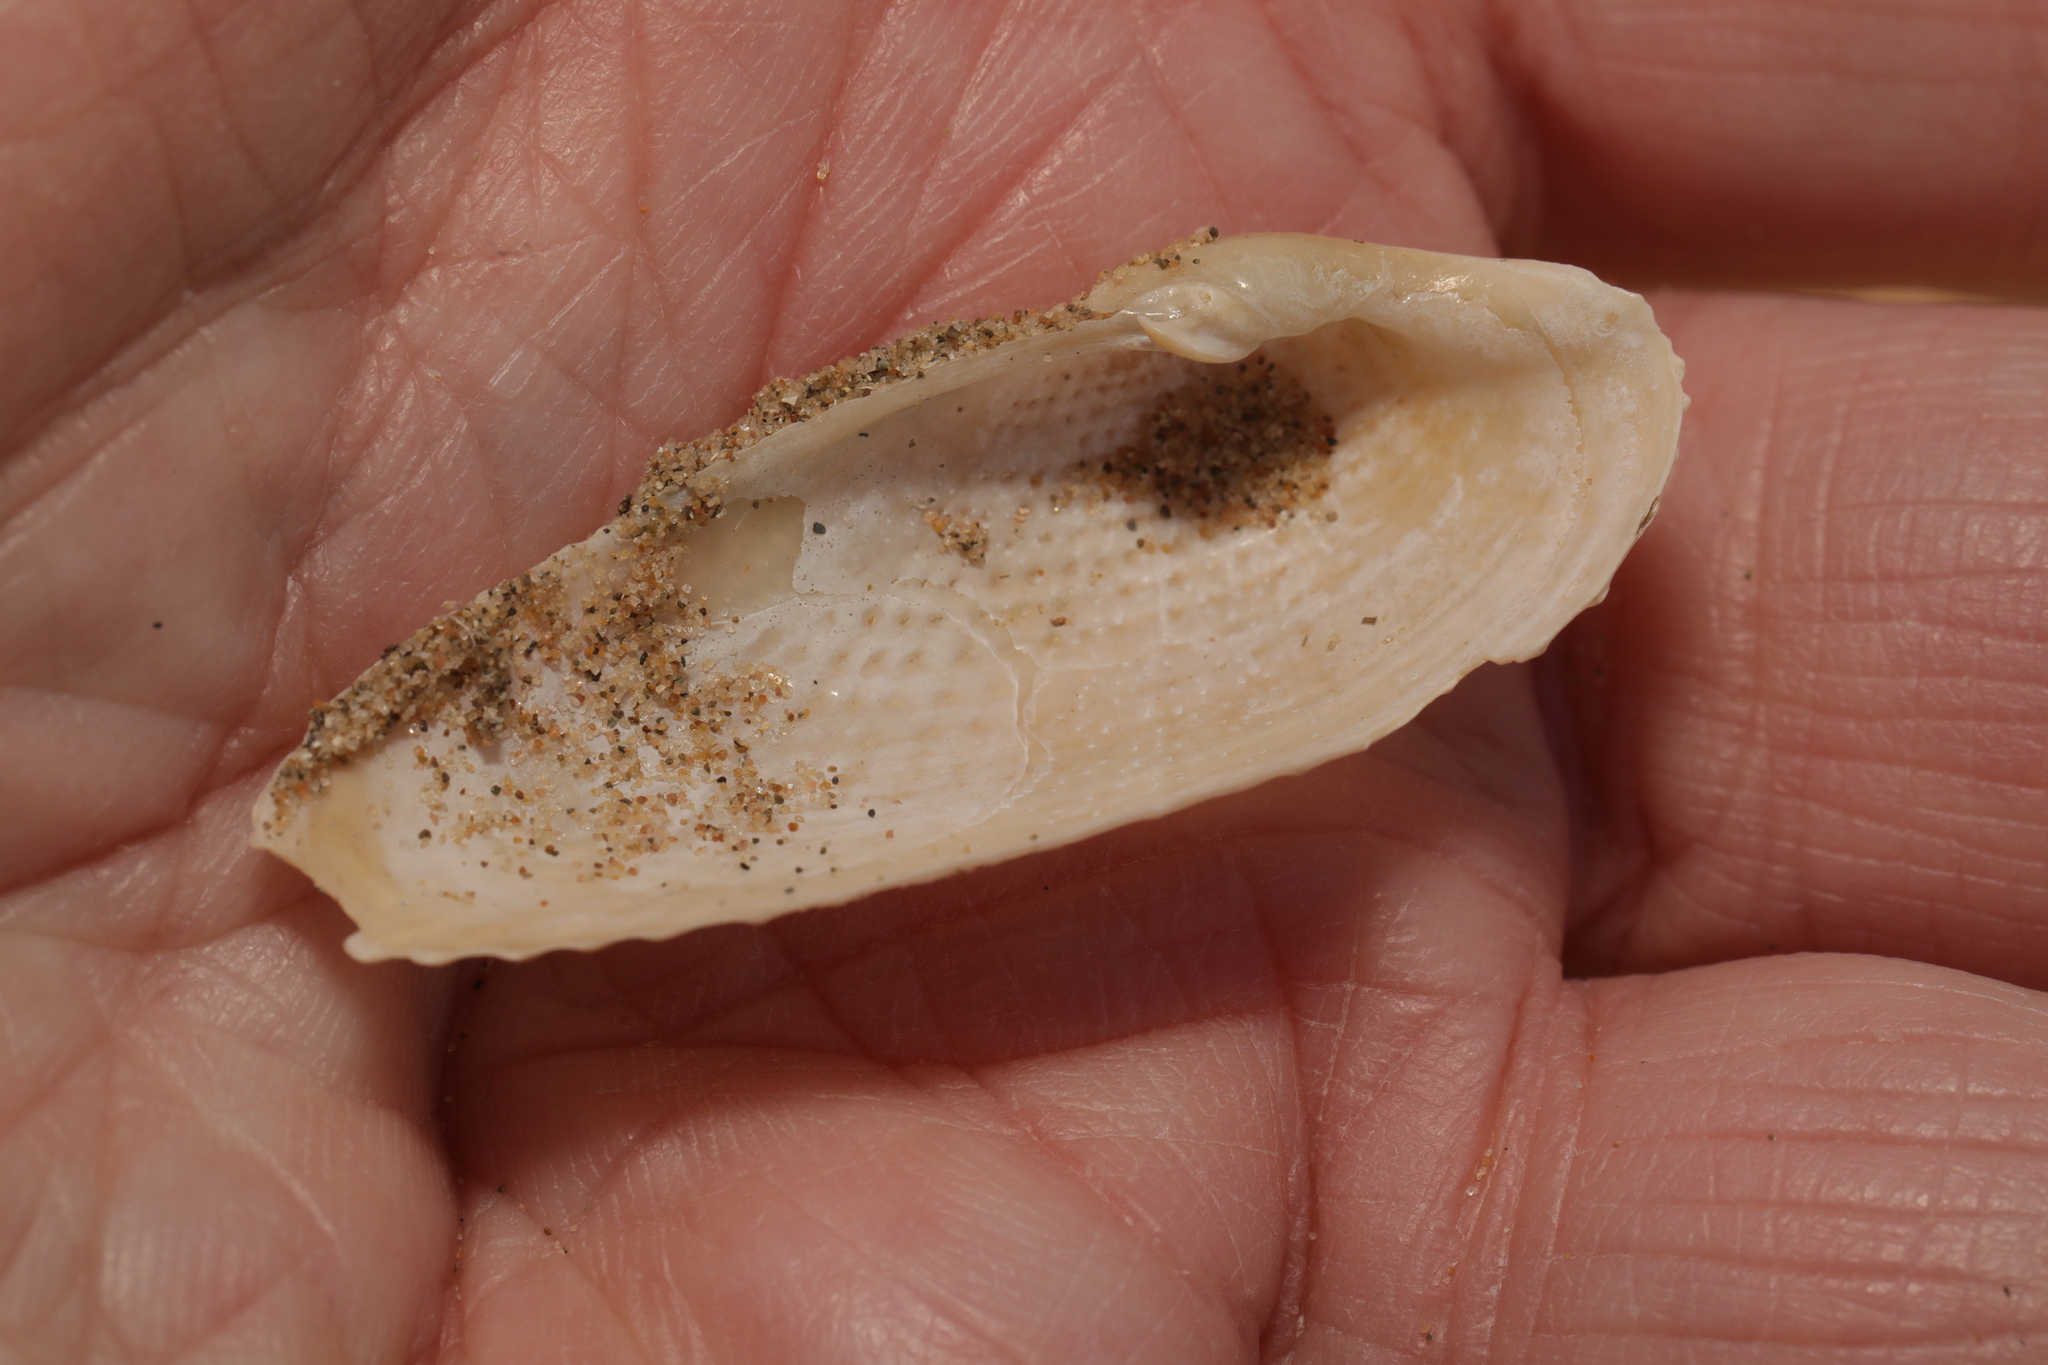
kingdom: Animalia
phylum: Mollusca
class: Bivalvia
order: Myida
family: Pholadidae
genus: Barnea
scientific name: Barnea candida
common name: White piddock
